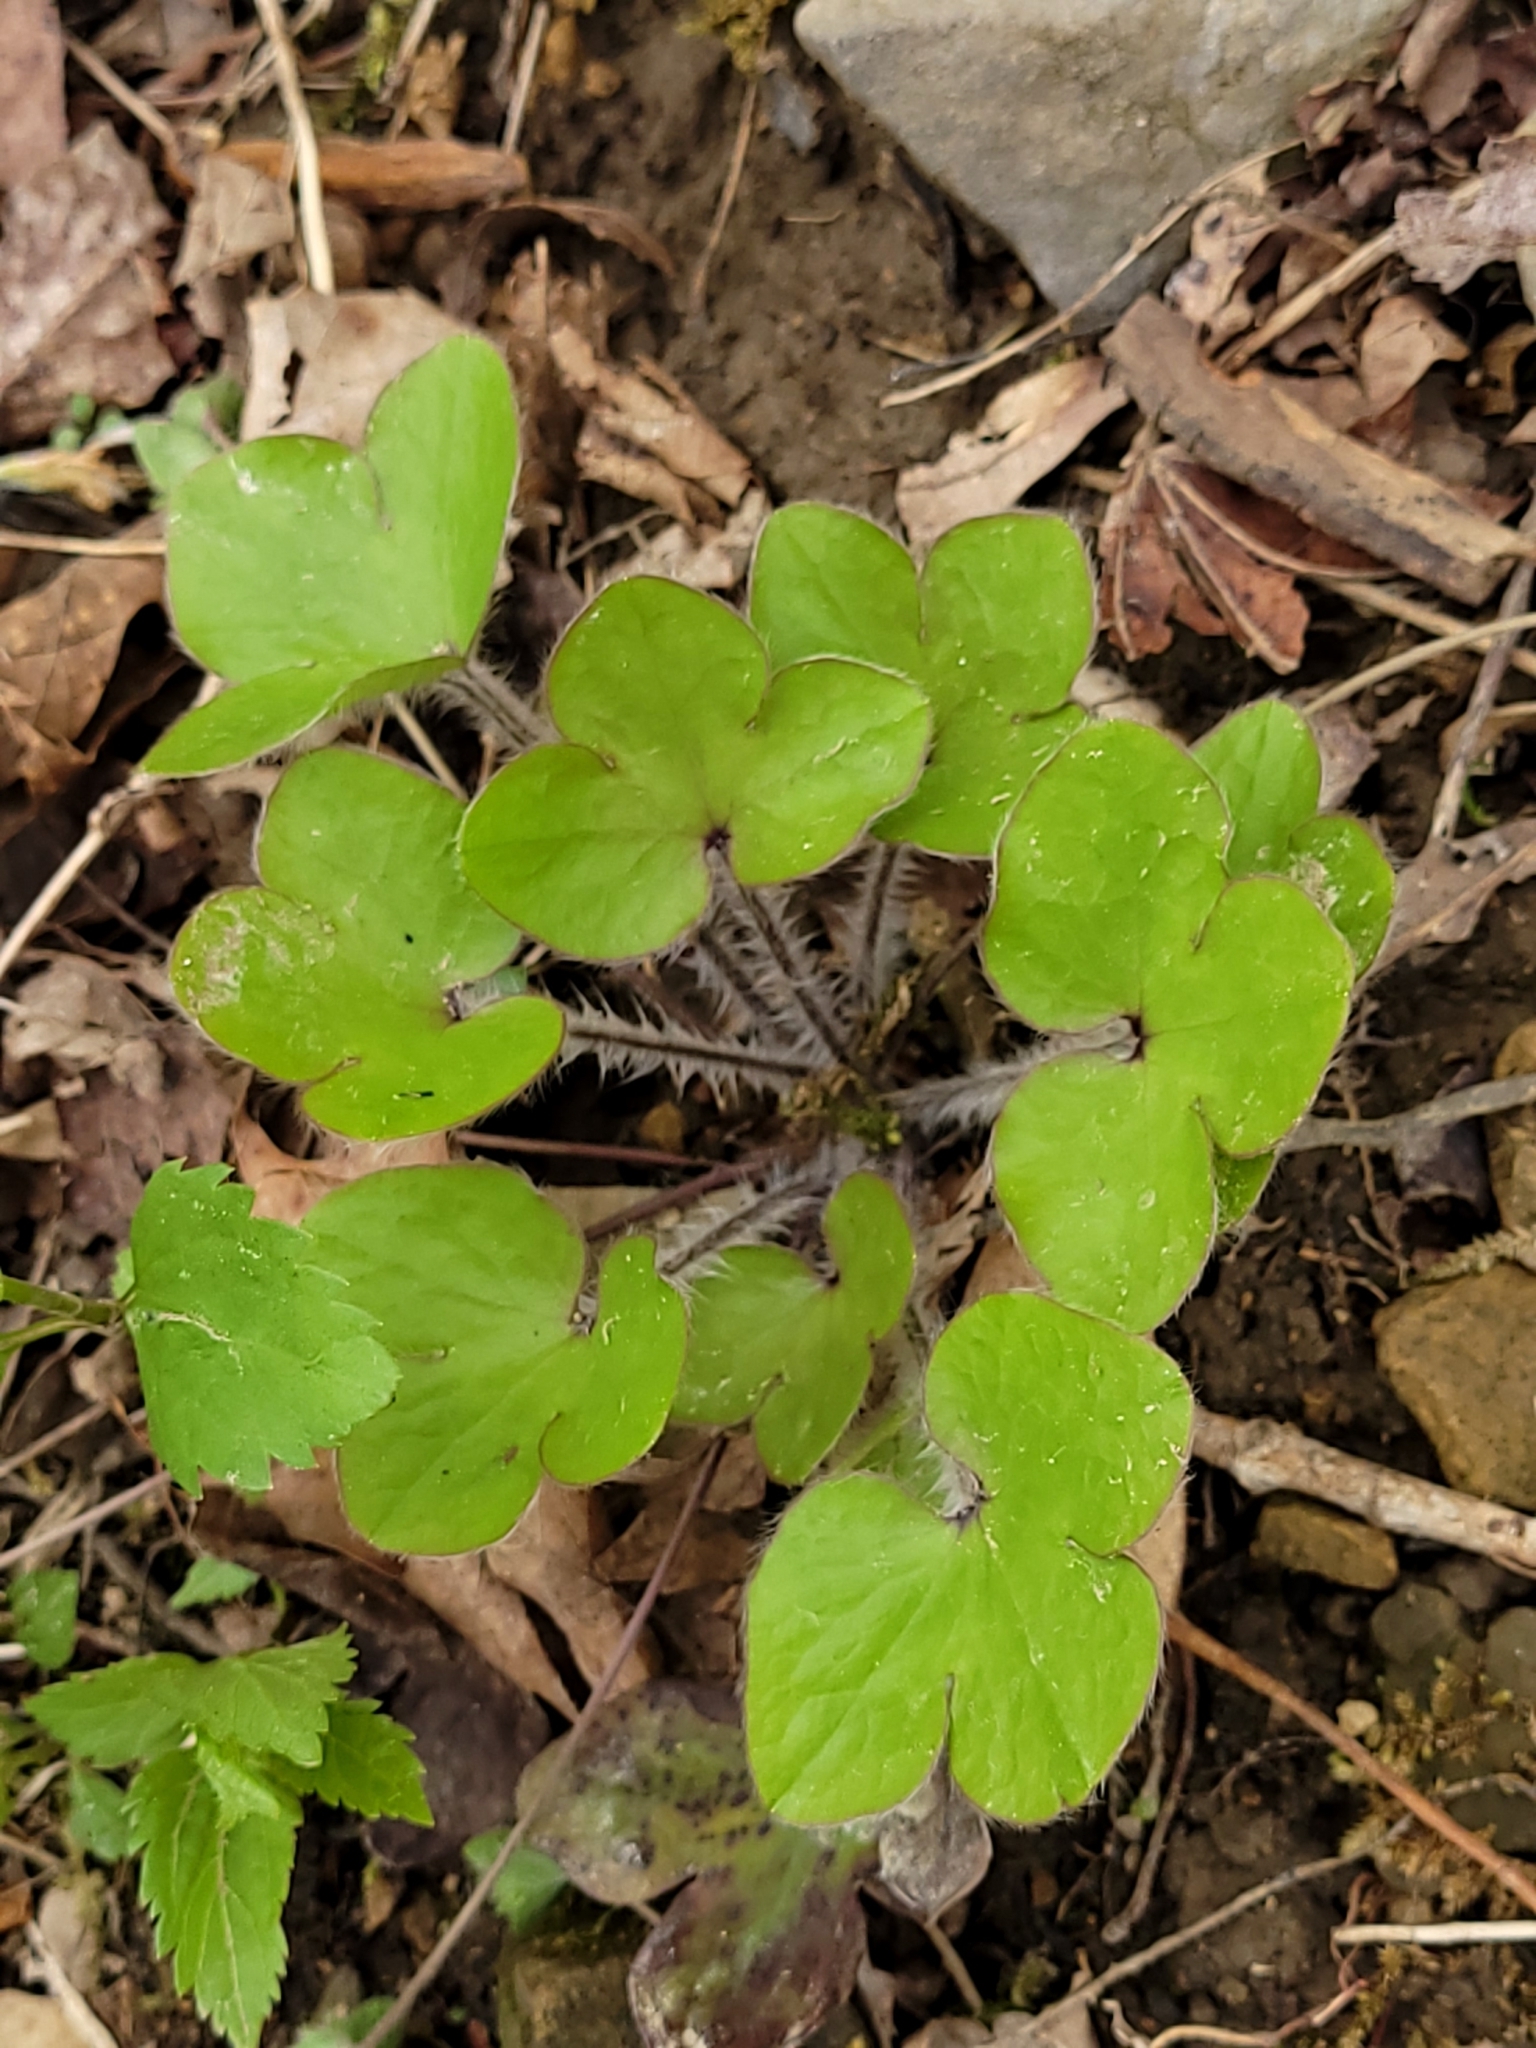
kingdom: Plantae
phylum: Tracheophyta
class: Magnoliopsida
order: Ranunculales
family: Ranunculaceae
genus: Hepatica
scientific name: Hepatica americana
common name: American hepatica
